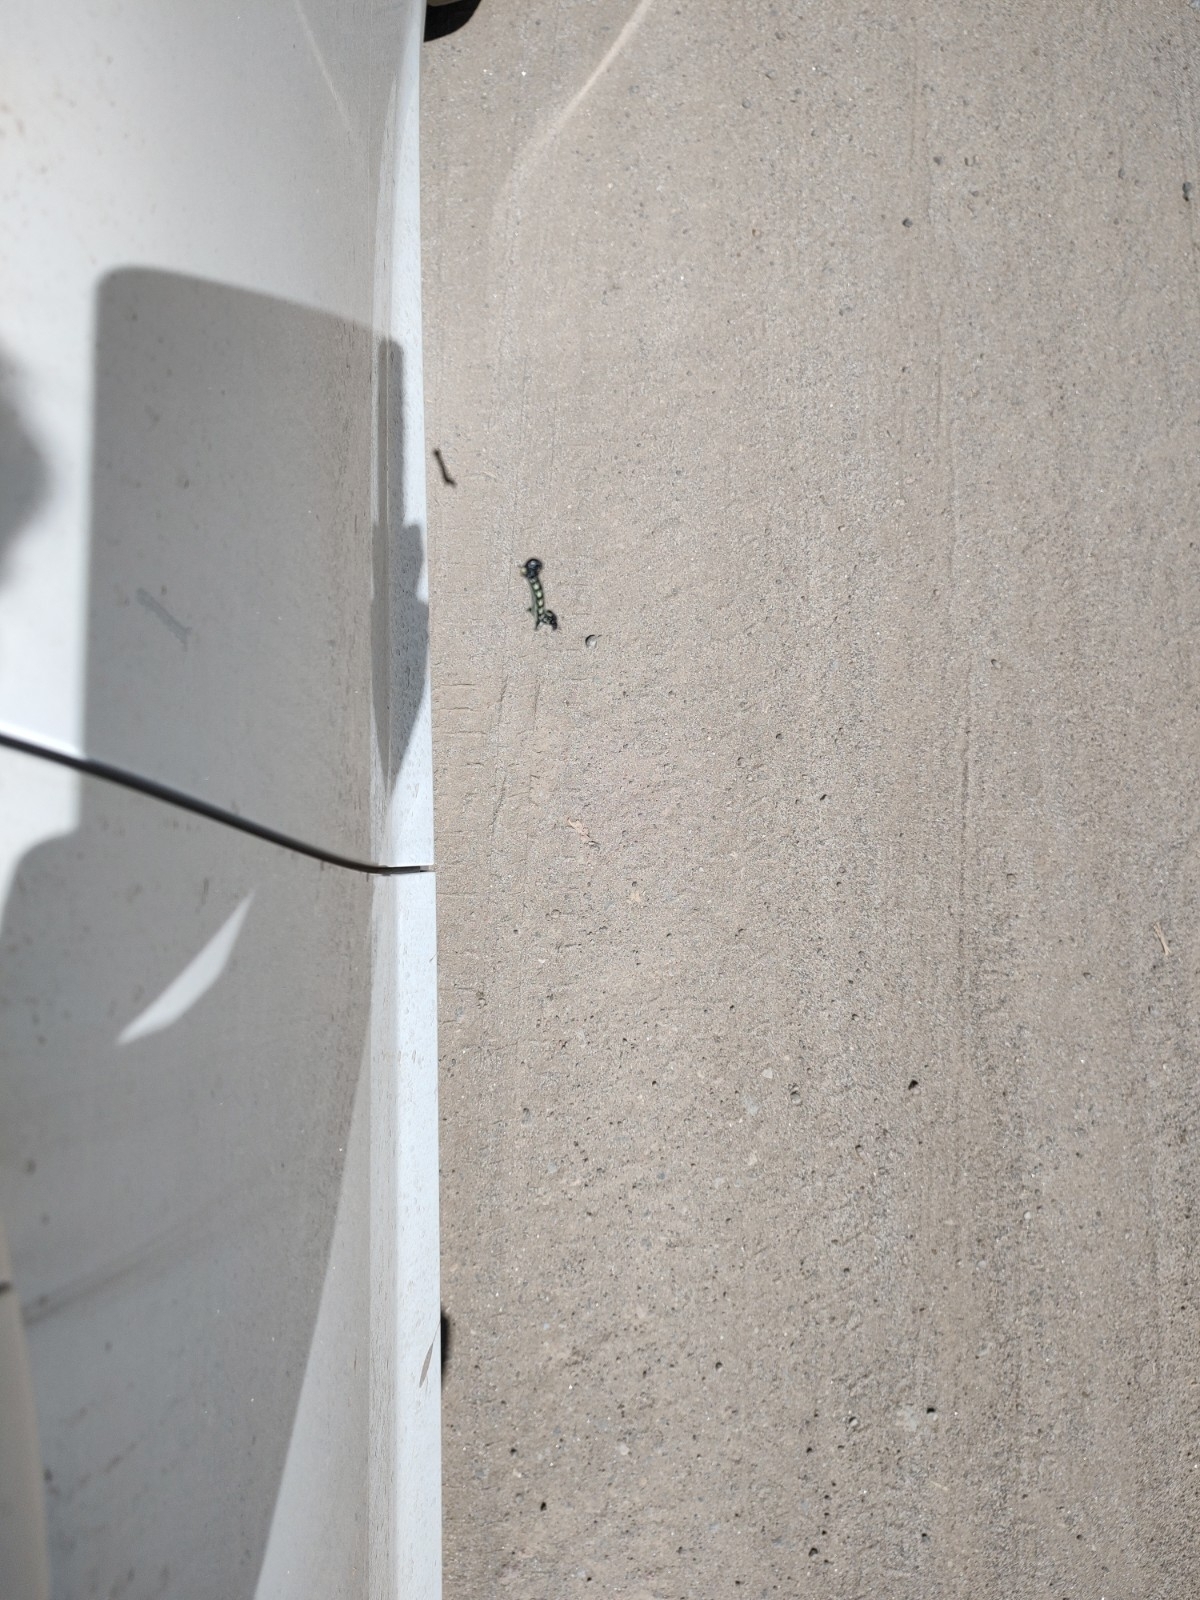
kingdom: Animalia
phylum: Arthropoda
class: Insecta
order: Lepidoptera
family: Geometridae
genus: Acronyctodes
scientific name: Acronyctodes mexicanaria
